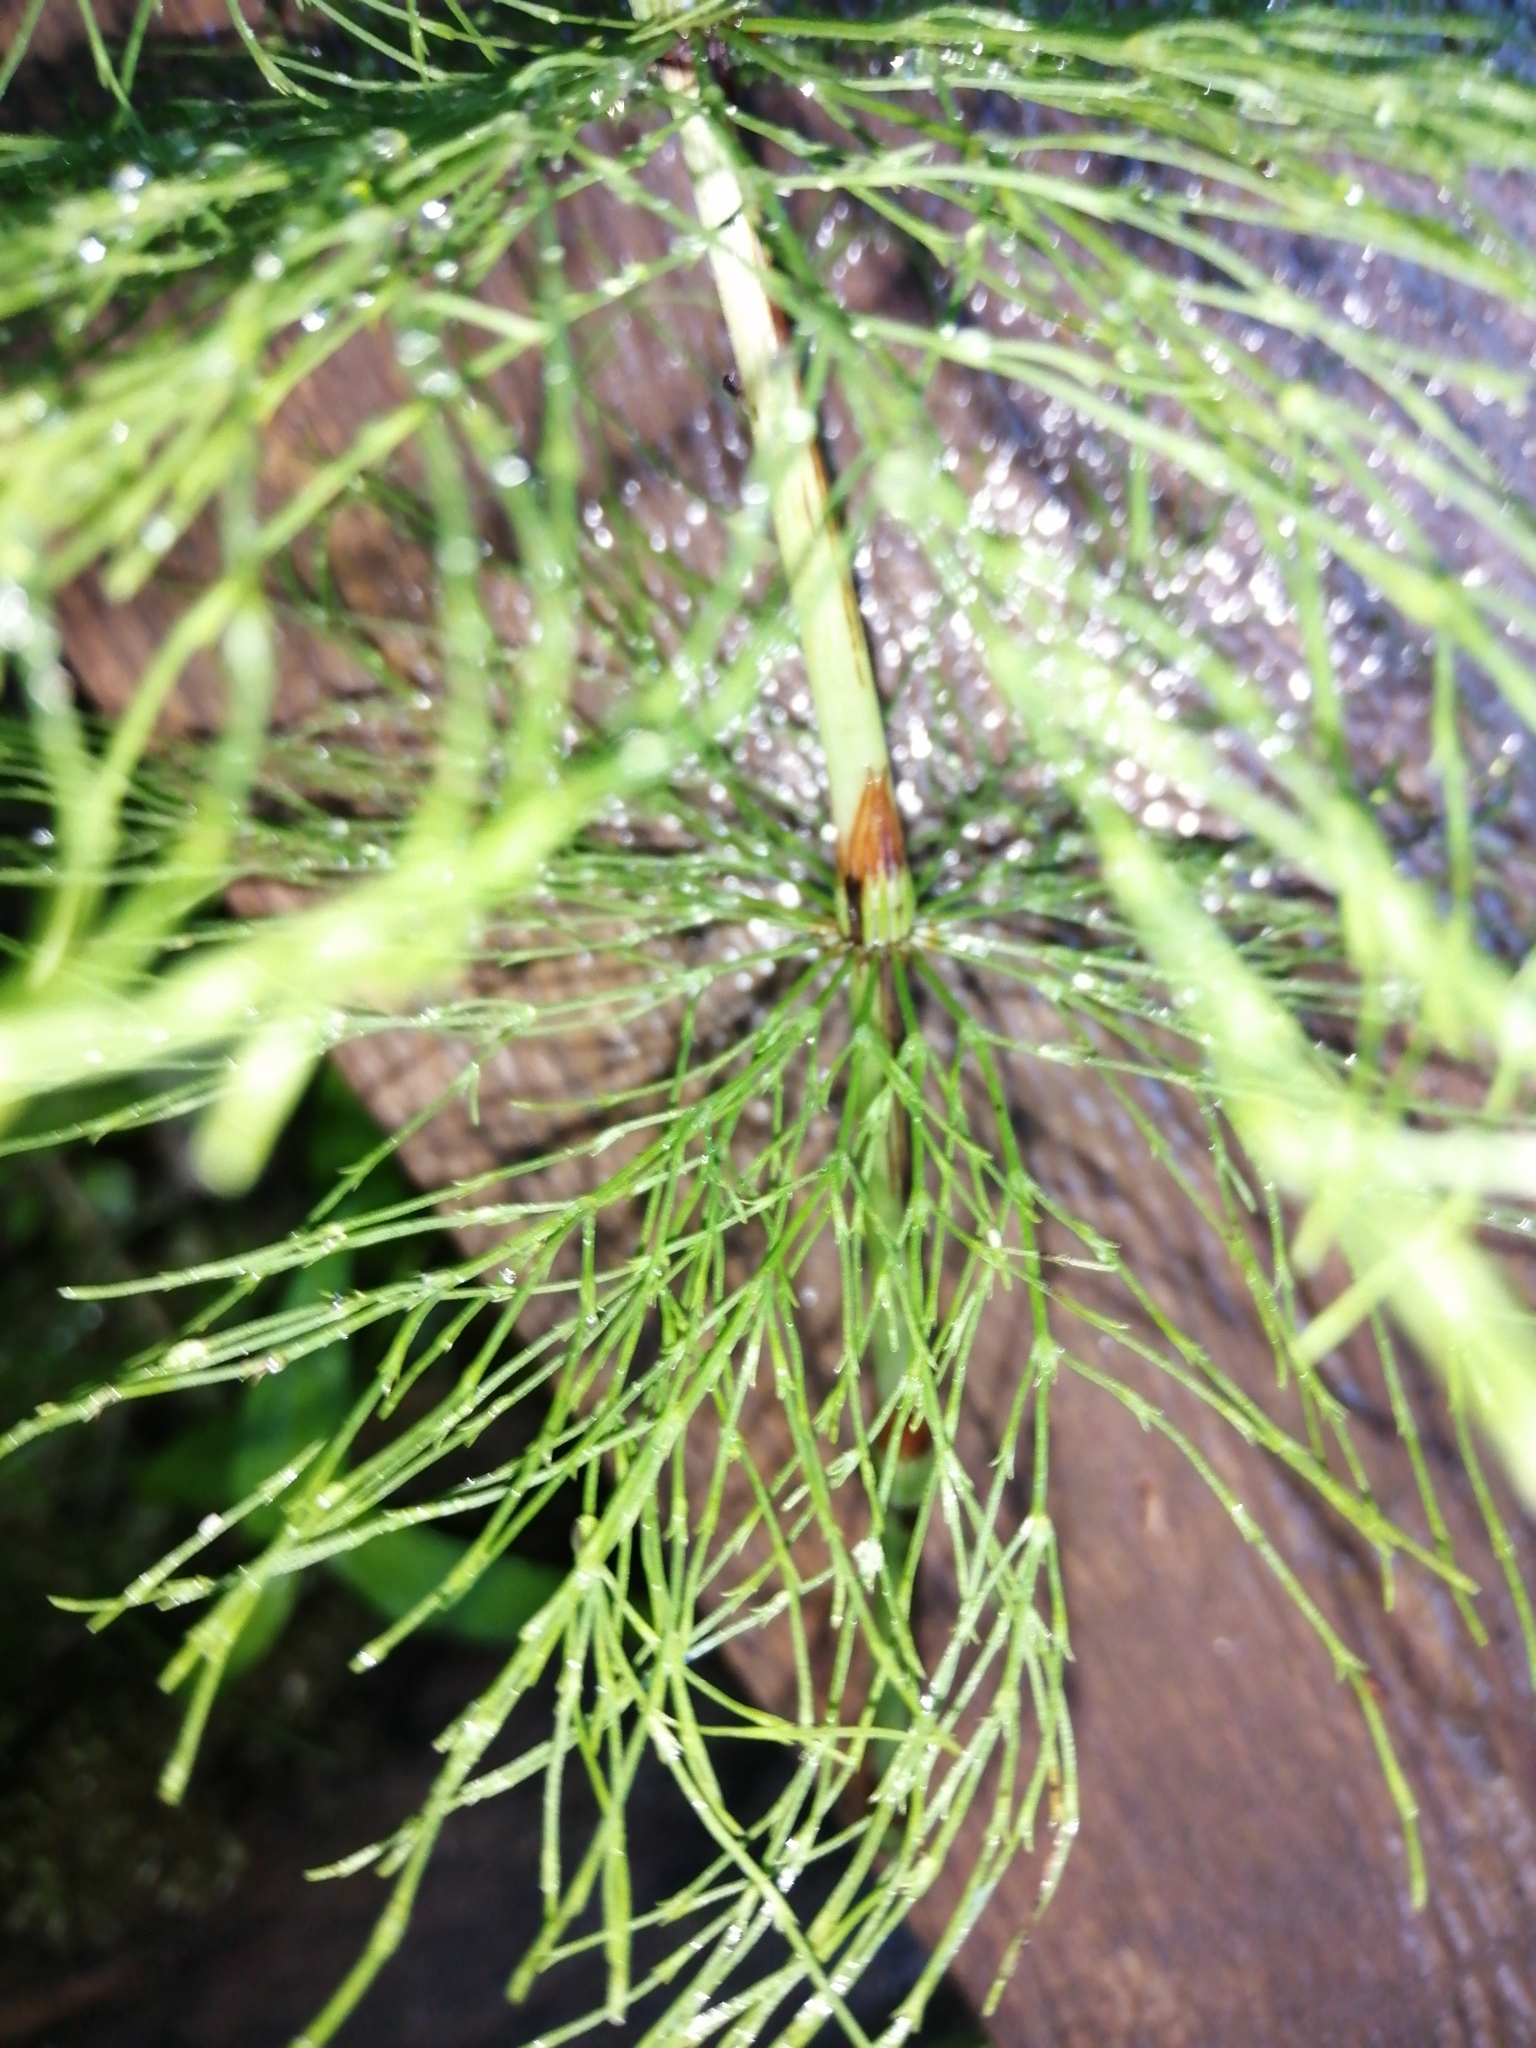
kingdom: Plantae
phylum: Tracheophyta
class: Polypodiopsida
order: Equisetales
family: Equisetaceae
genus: Equisetum
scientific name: Equisetum sylvaticum
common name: Wood horsetail
